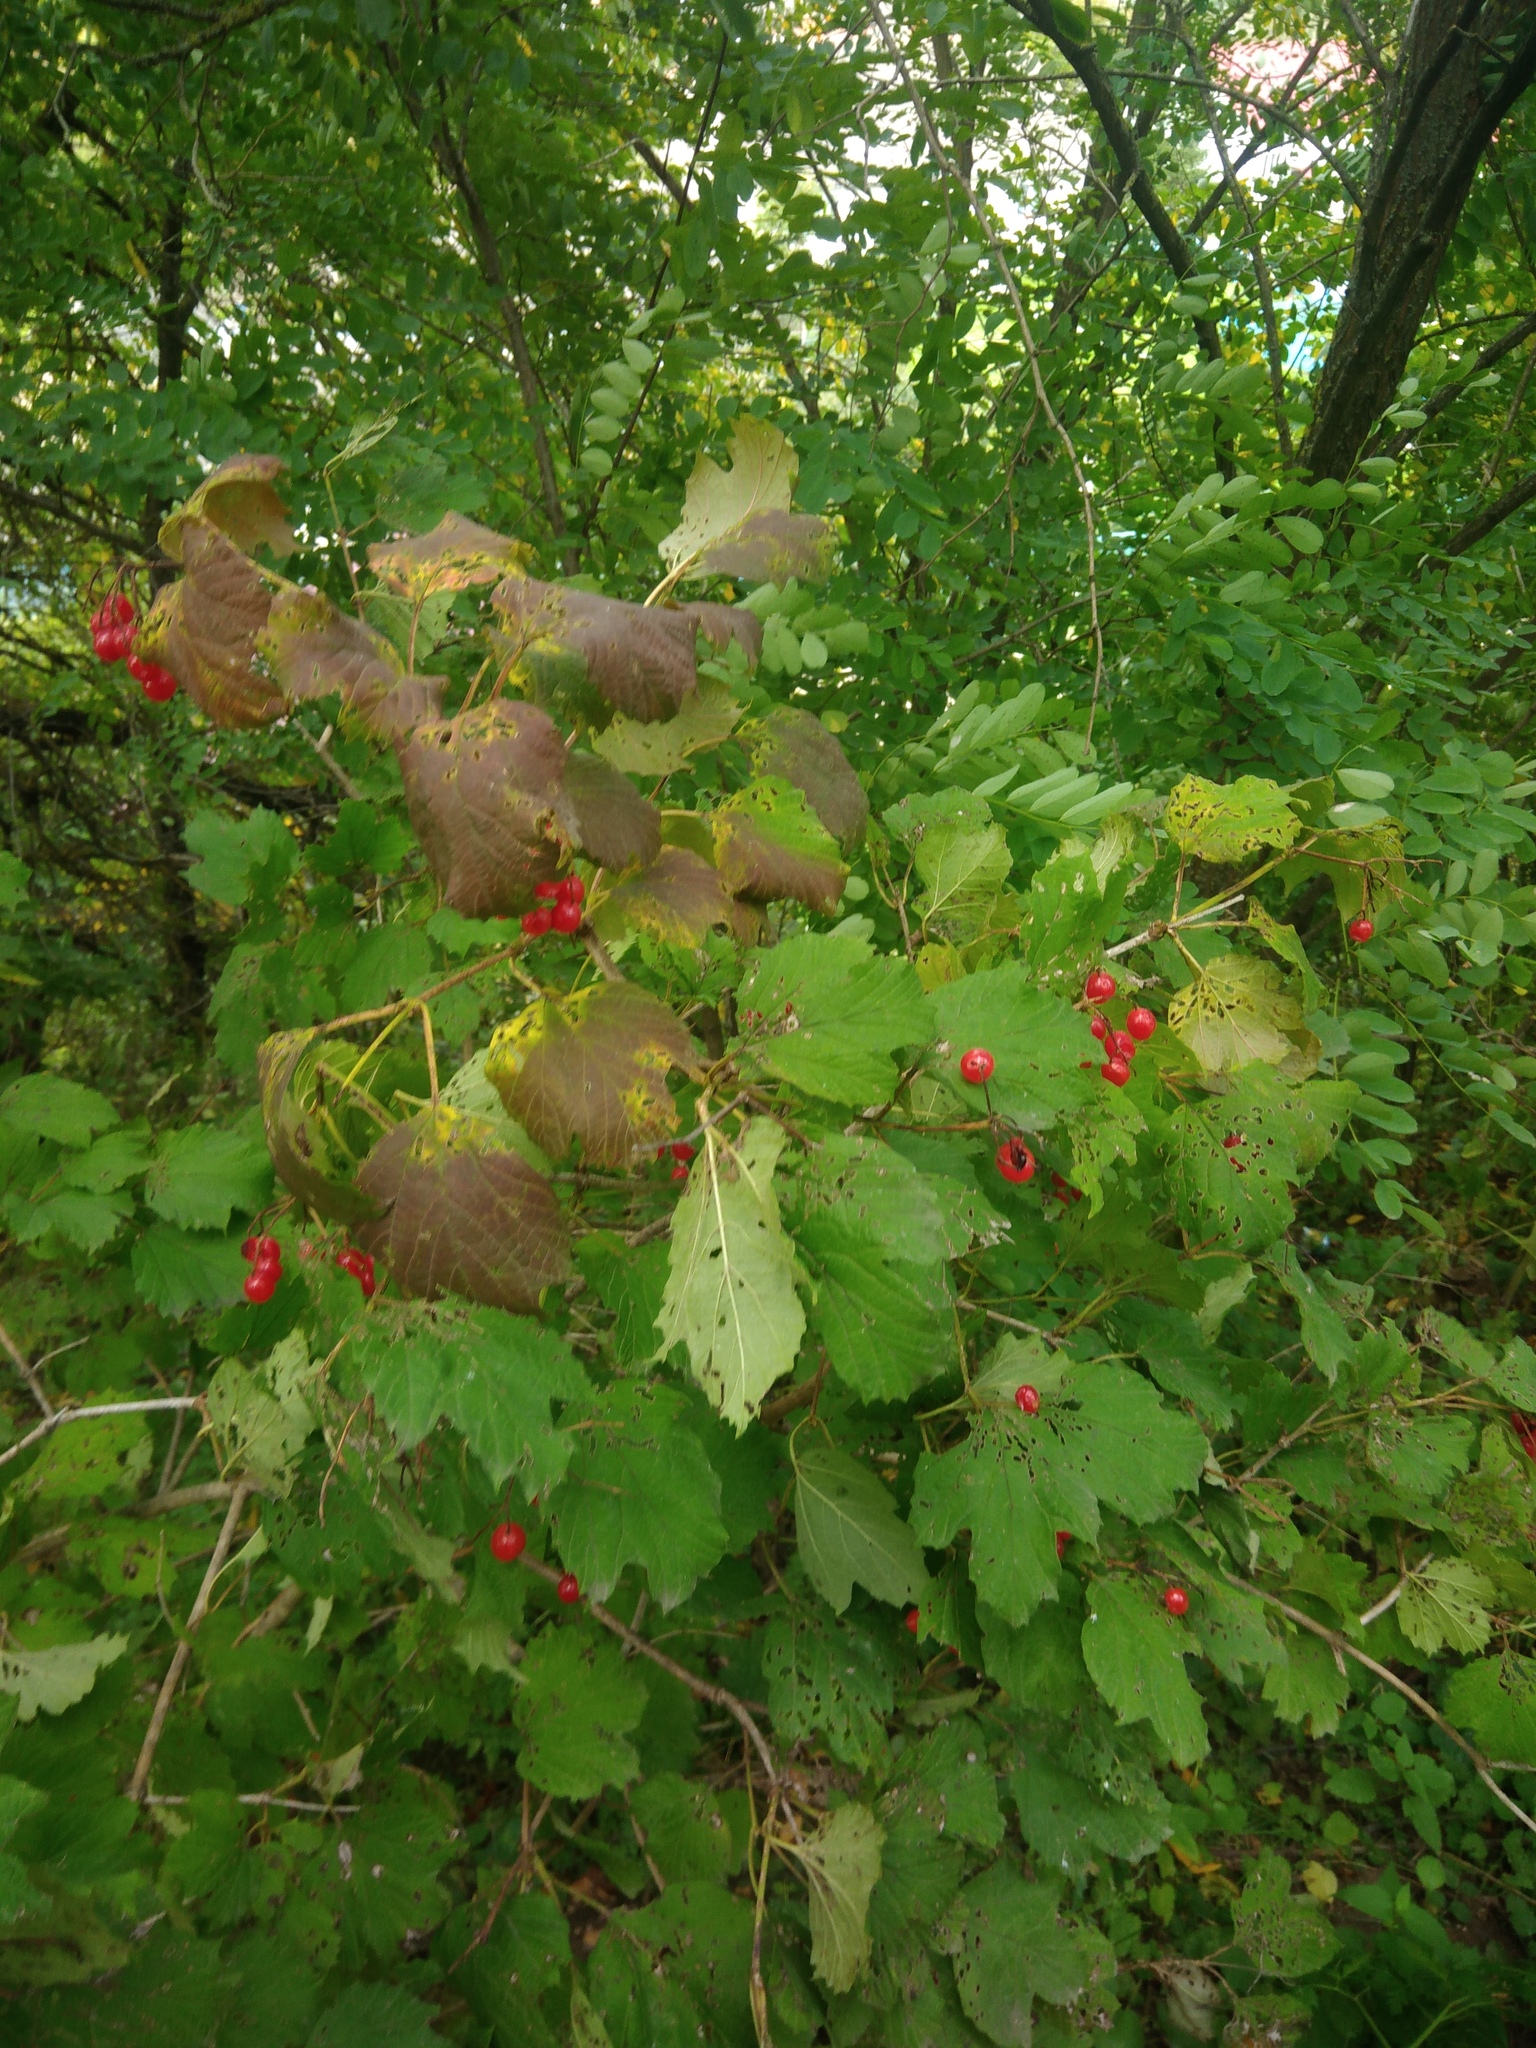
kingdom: Plantae
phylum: Tracheophyta
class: Magnoliopsida
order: Dipsacales
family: Viburnaceae
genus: Viburnum
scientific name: Viburnum opulus
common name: Guelder-rose
